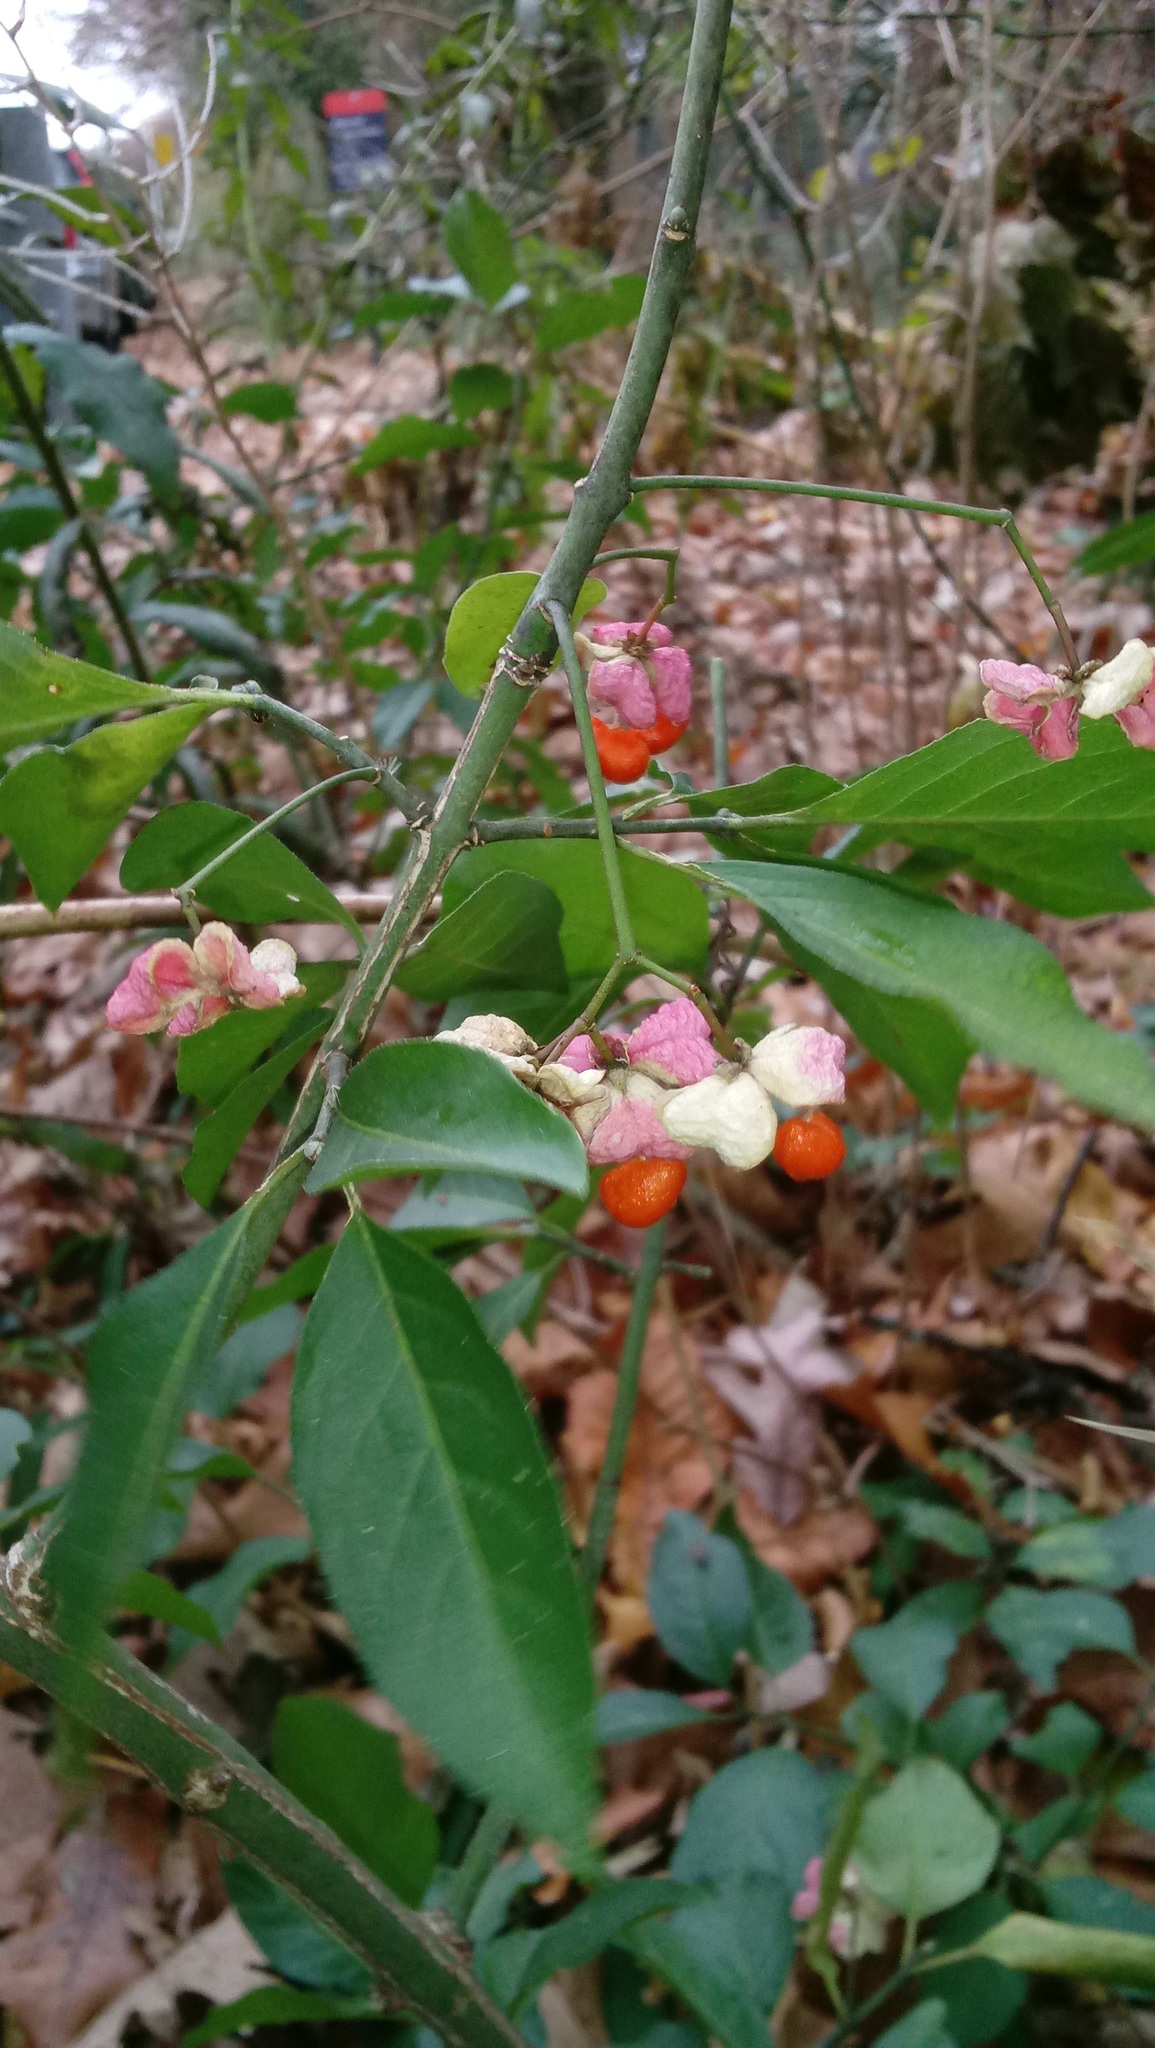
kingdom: Plantae
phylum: Tracheophyta
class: Magnoliopsida
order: Celastrales
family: Celastraceae
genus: Euonymus
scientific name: Euonymus europaeus
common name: Spindle
